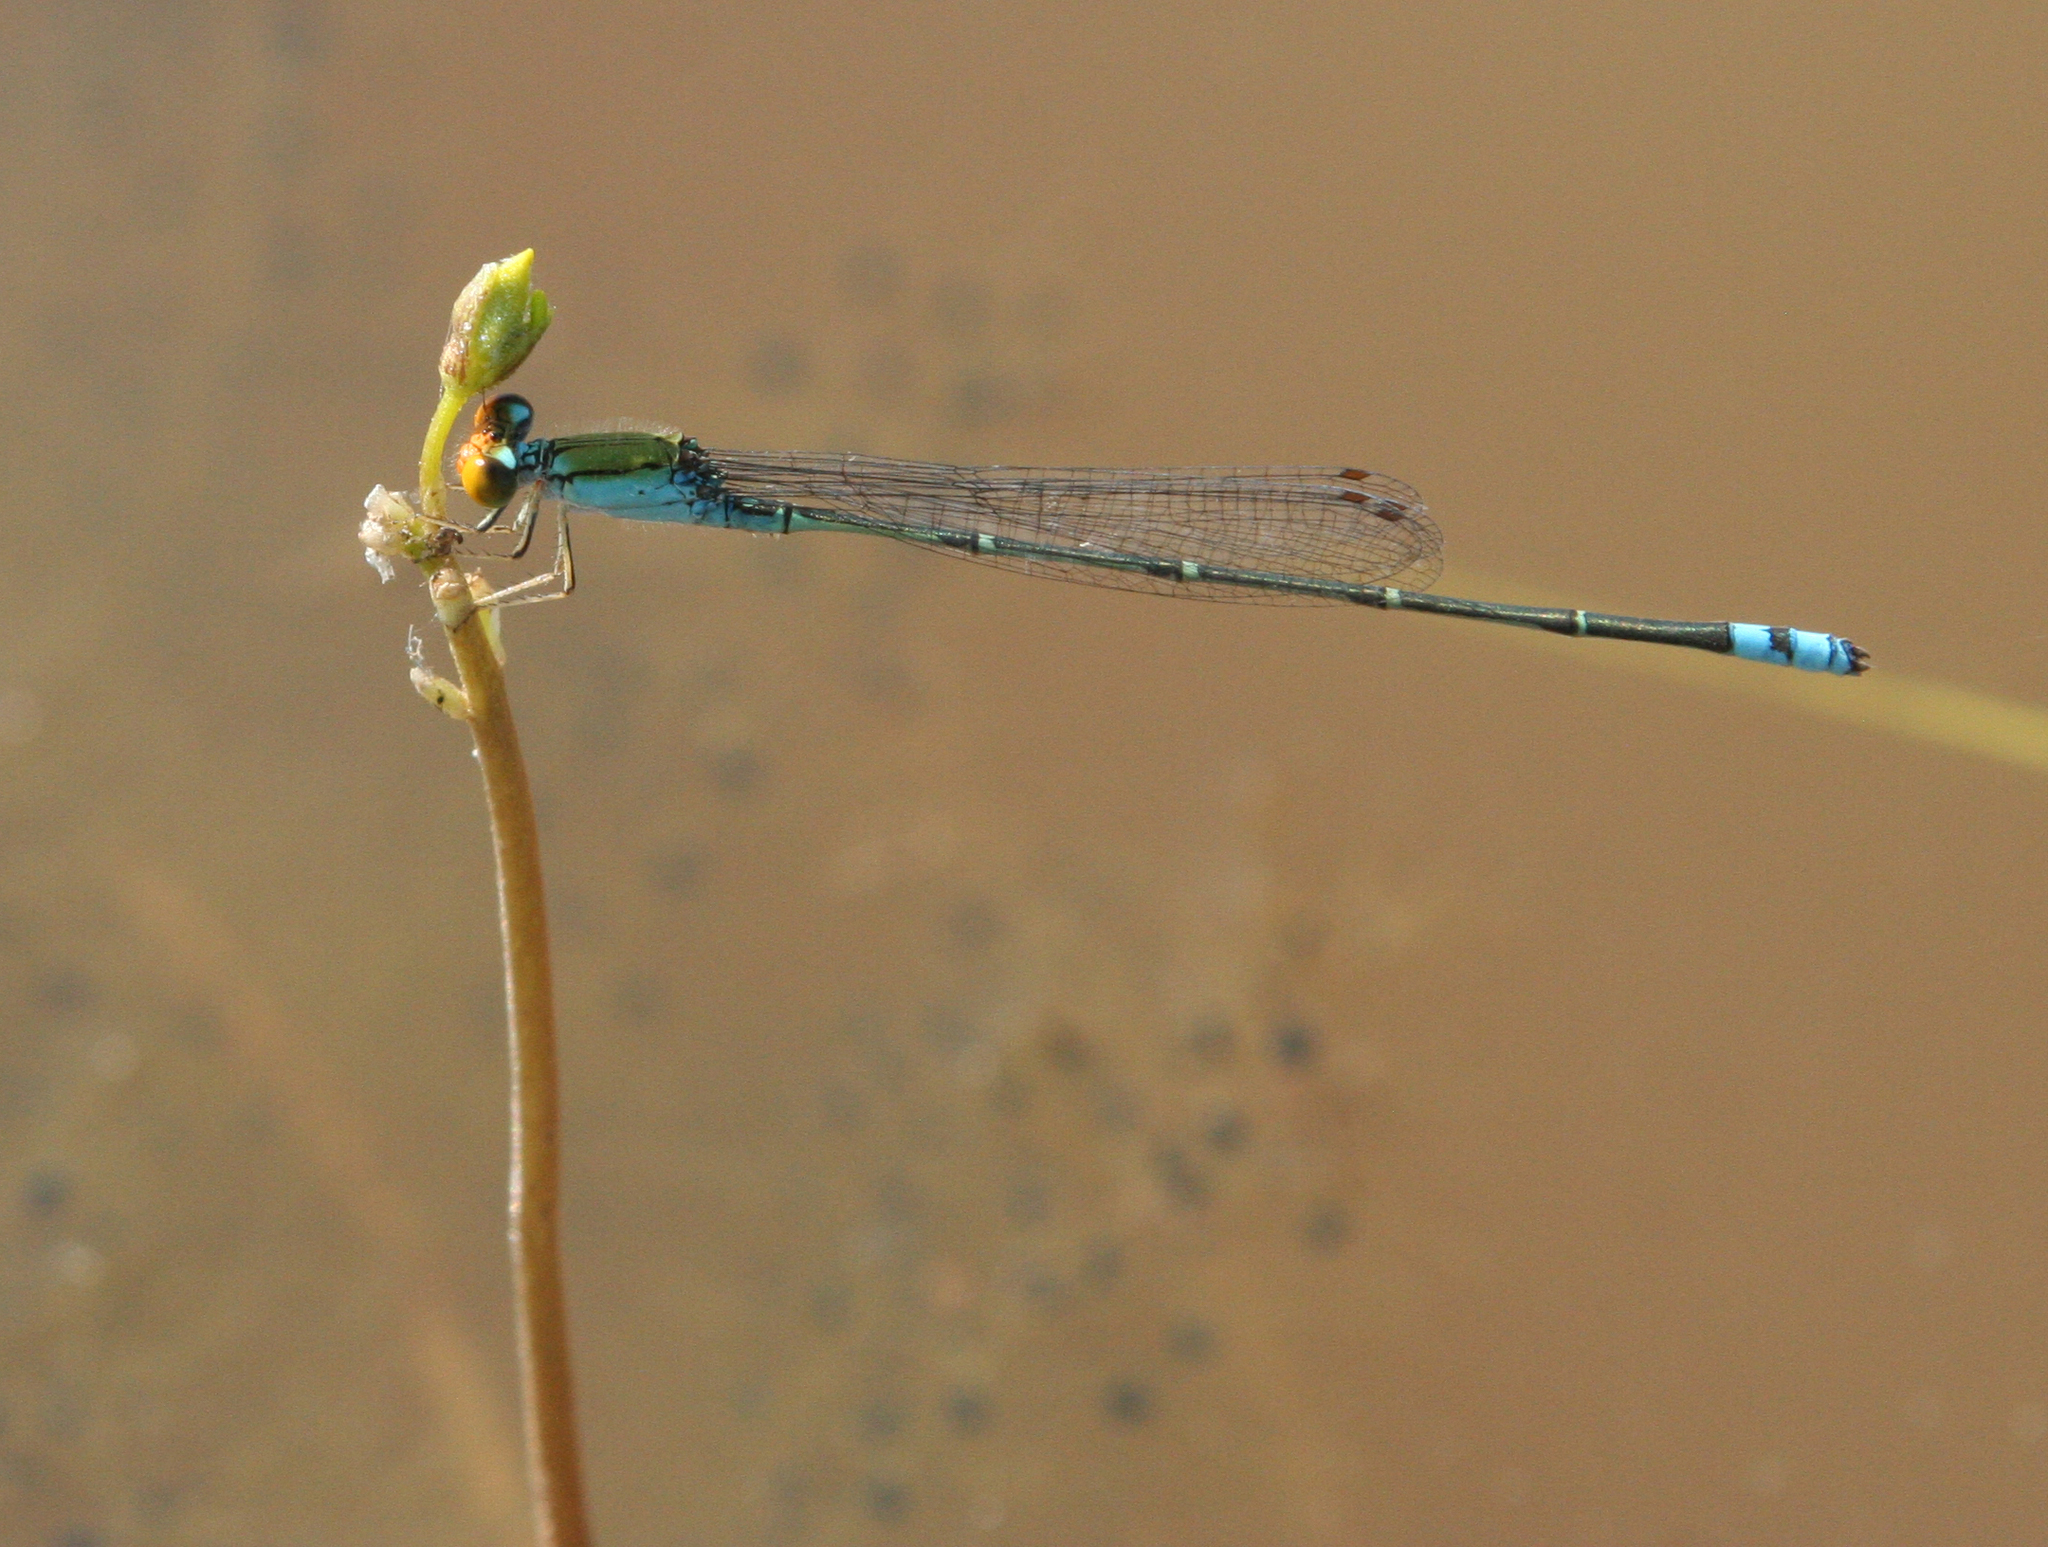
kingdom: Animalia
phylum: Arthropoda
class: Insecta
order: Odonata
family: Coenagrionidae
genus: Pseudagrion
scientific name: Pseudagrion rubriceps
